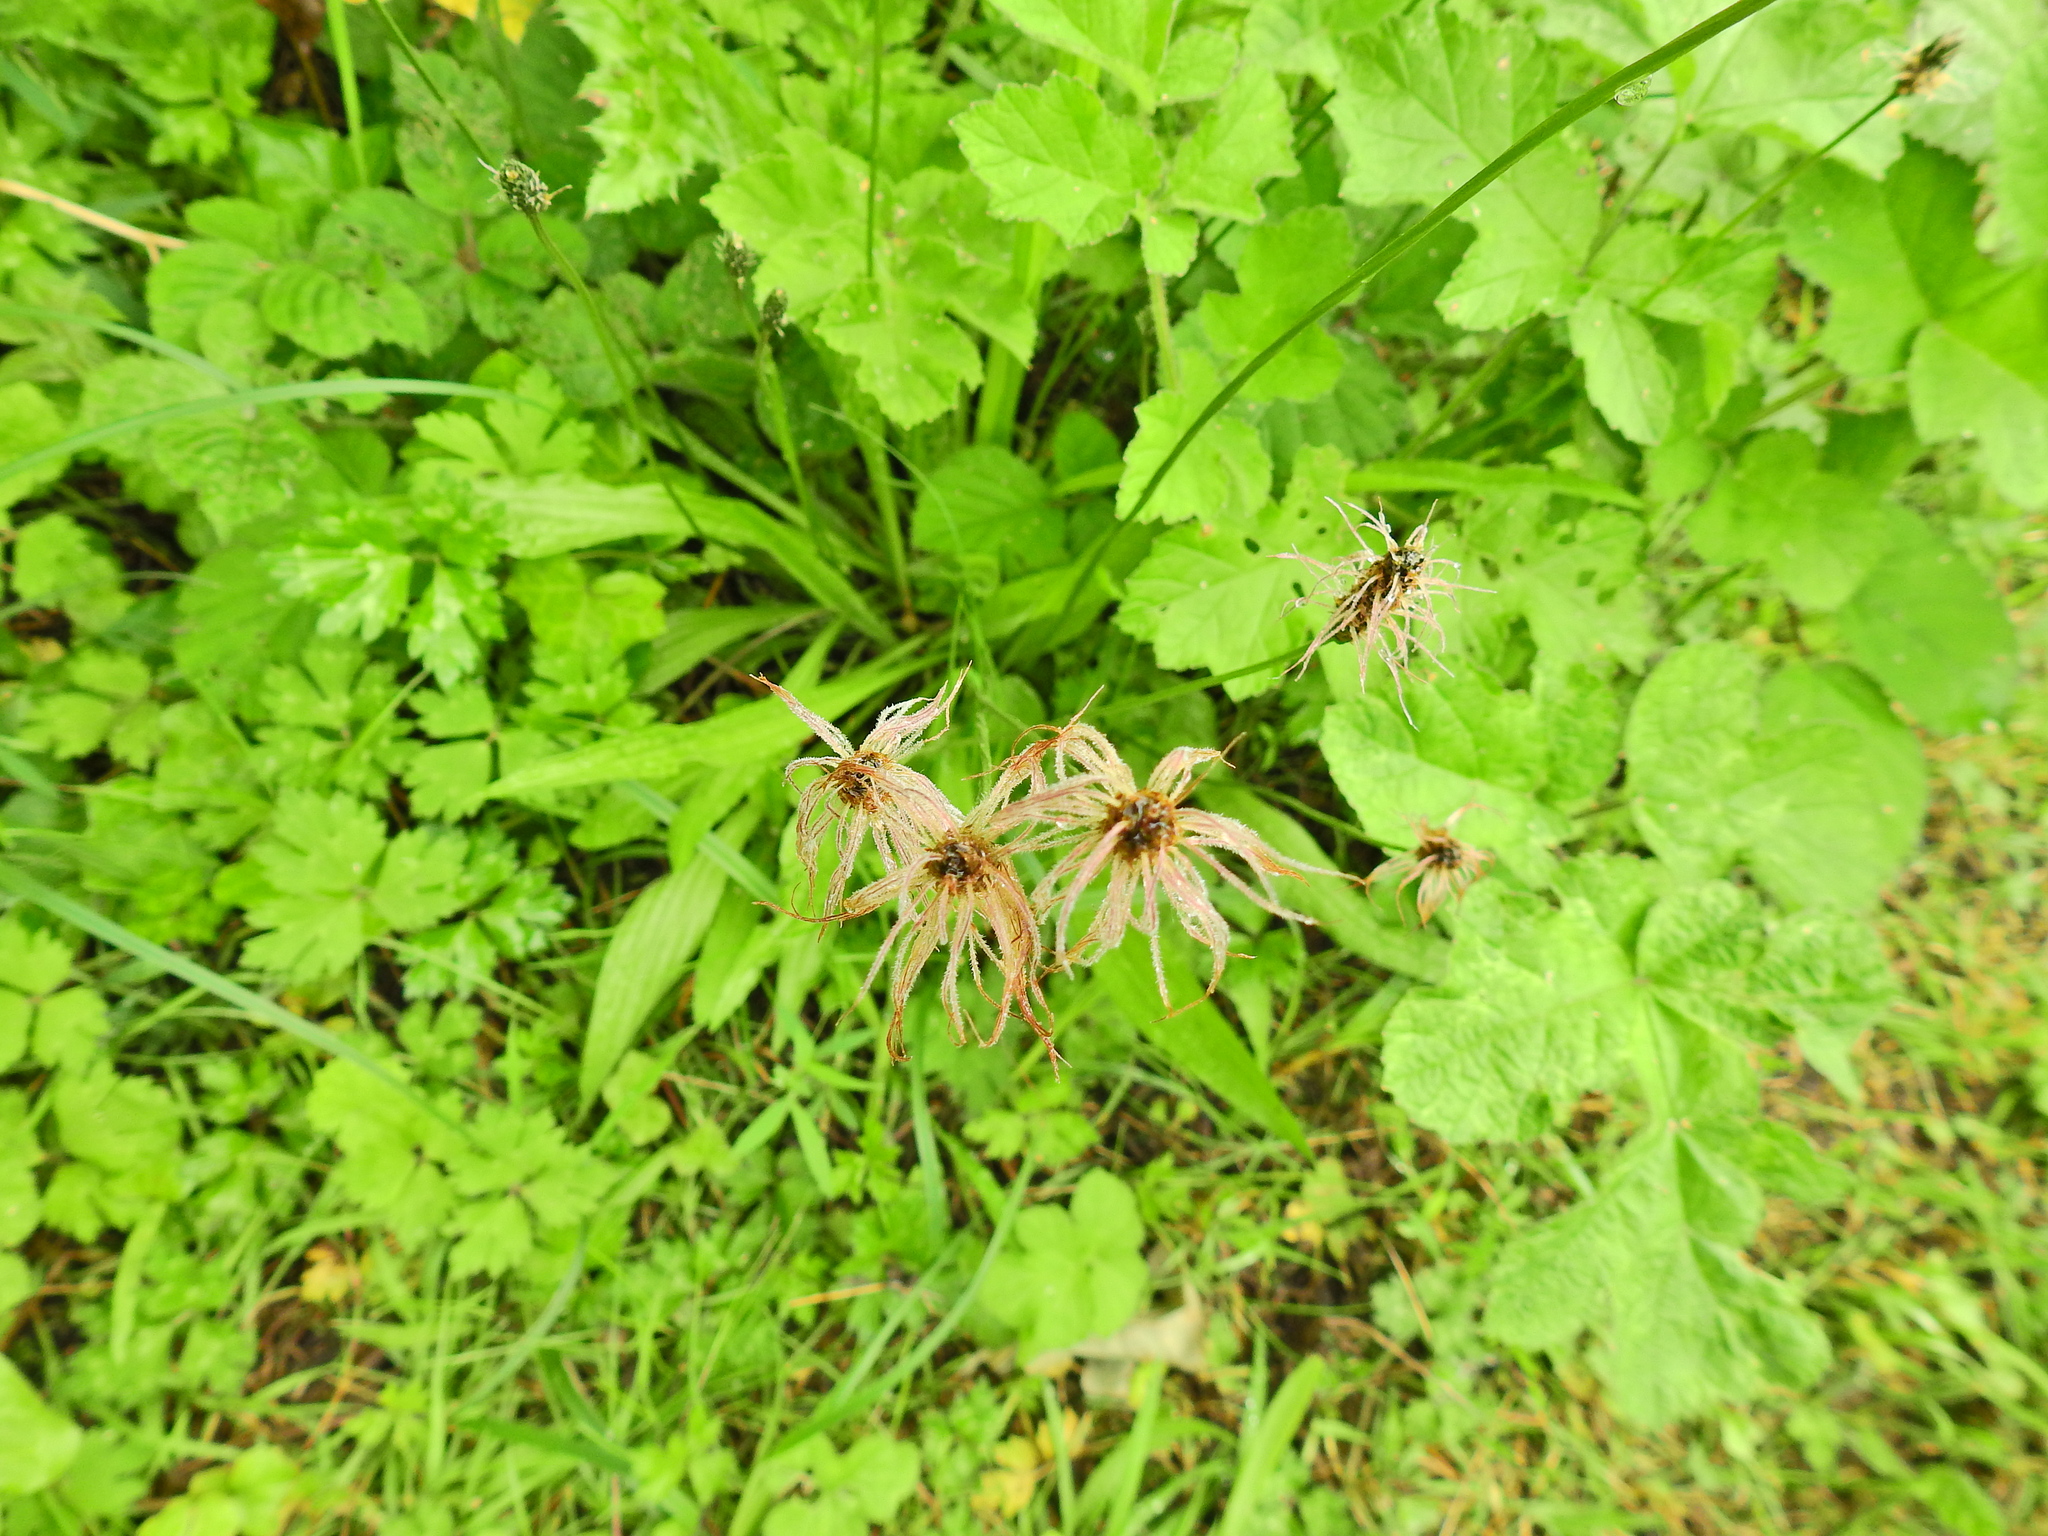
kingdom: Plantae
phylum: Tracheophyta
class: Magnoliopsida
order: Lamiales
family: Plantaginaceae
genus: Plantago
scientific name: Plantago lanceolata
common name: Ribwort plantain
